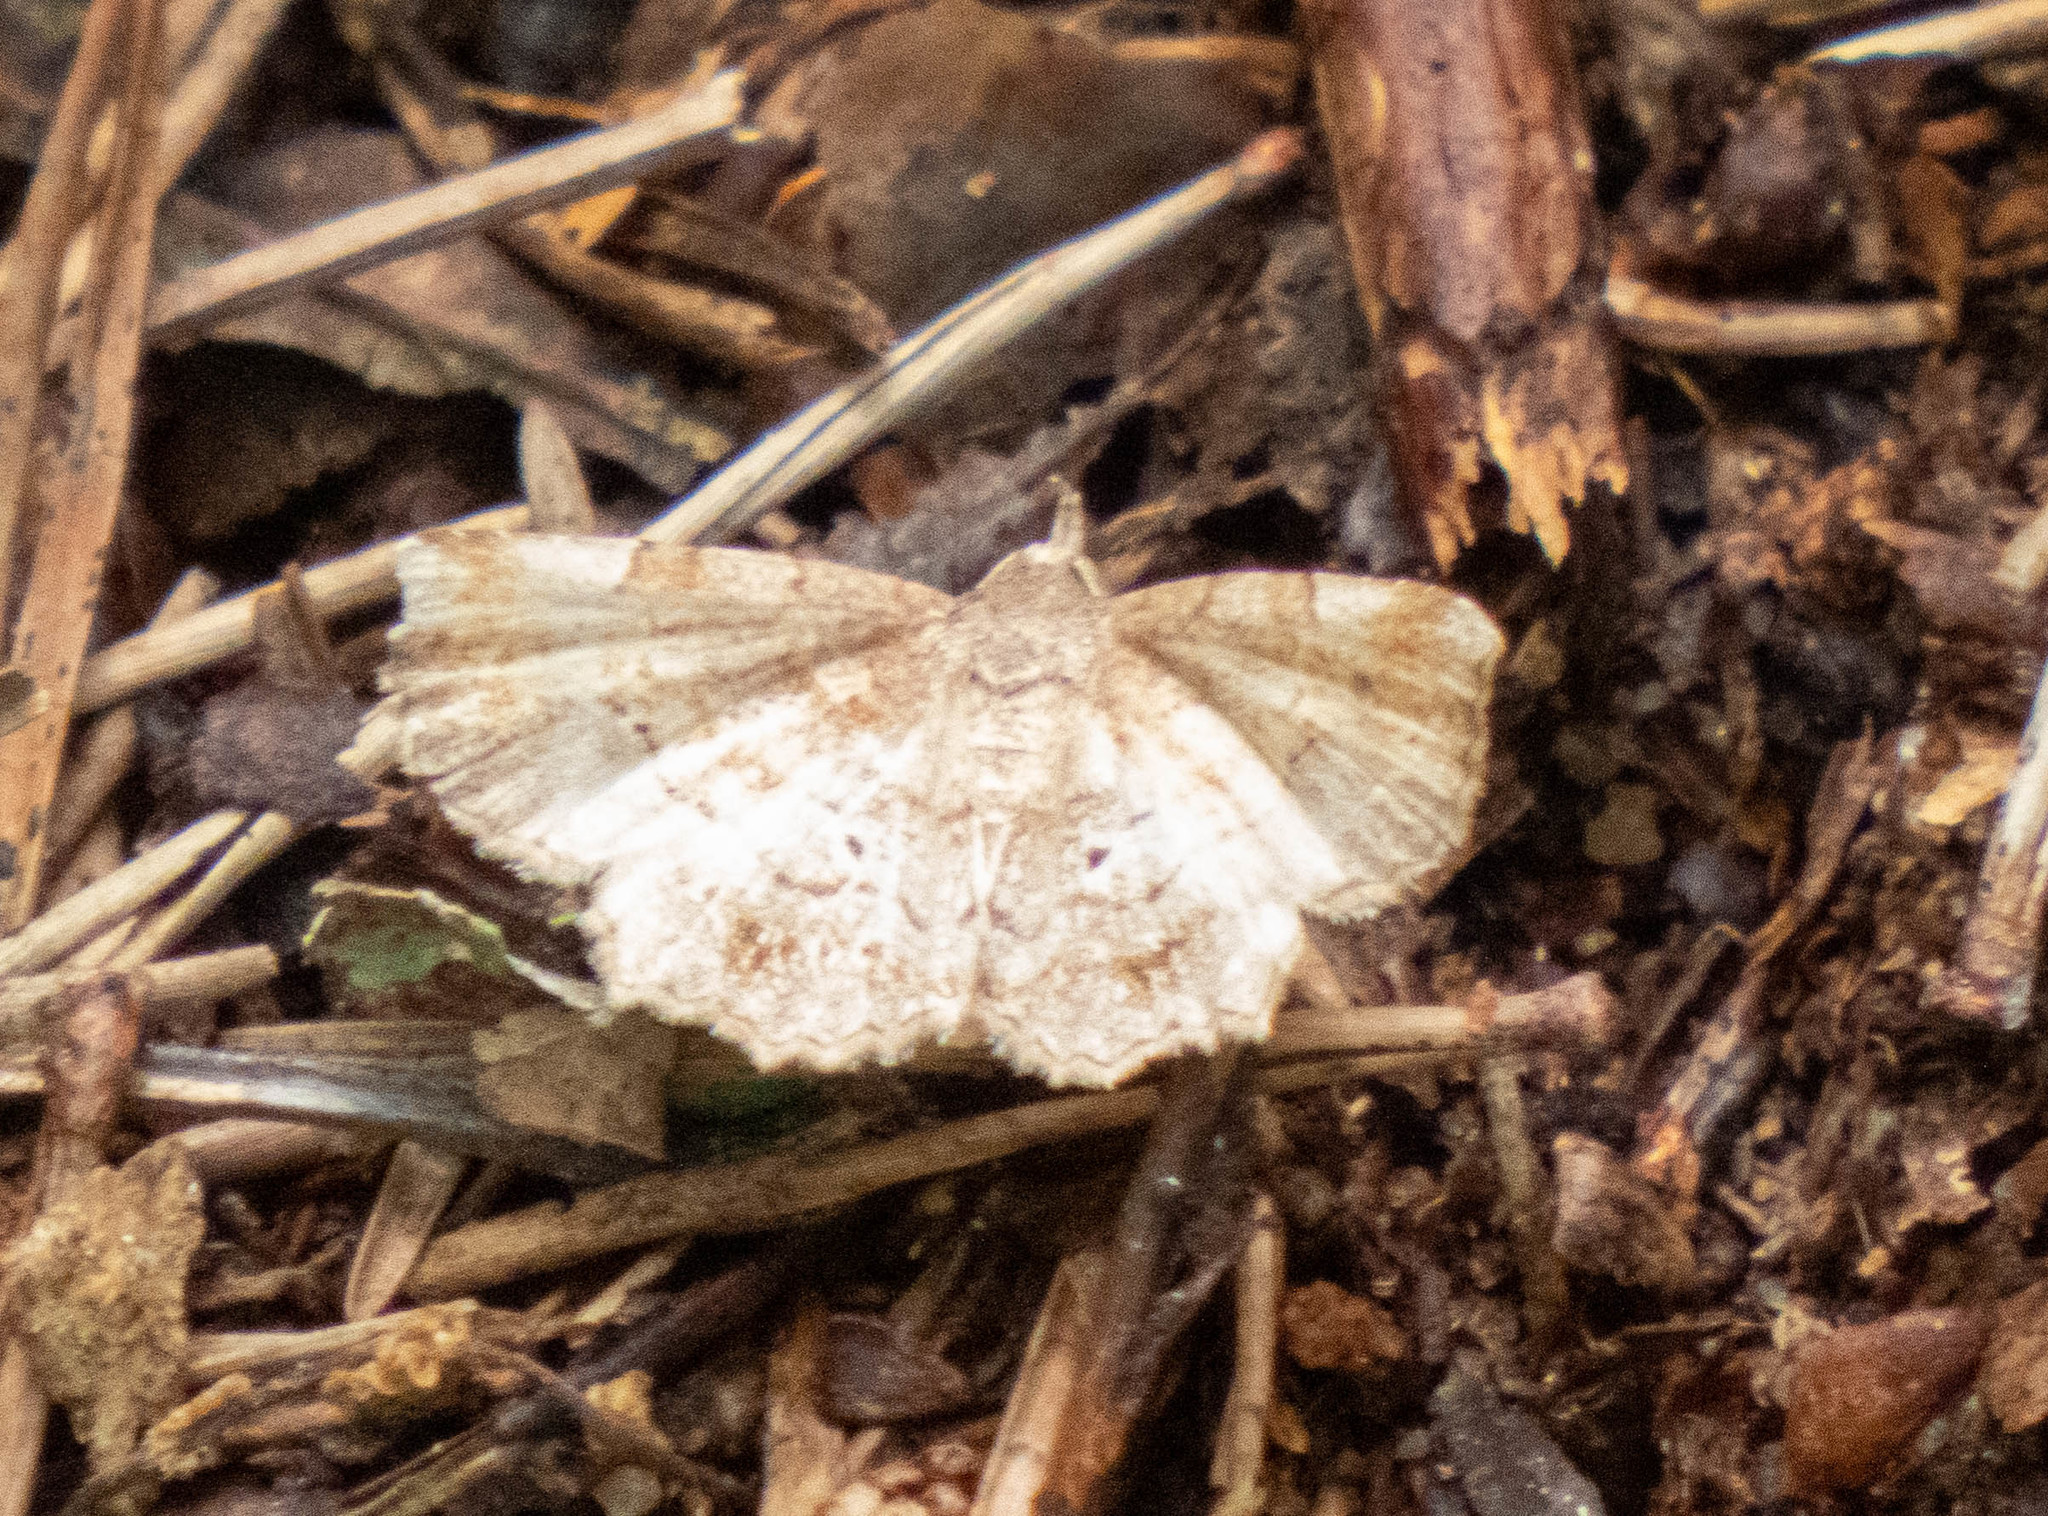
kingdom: Animalia
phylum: Arthropoda
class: Insecta
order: Lepidoptera
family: Erebidae
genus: Pangrapta
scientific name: Pangrapta decoralis
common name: Decorated owlet
